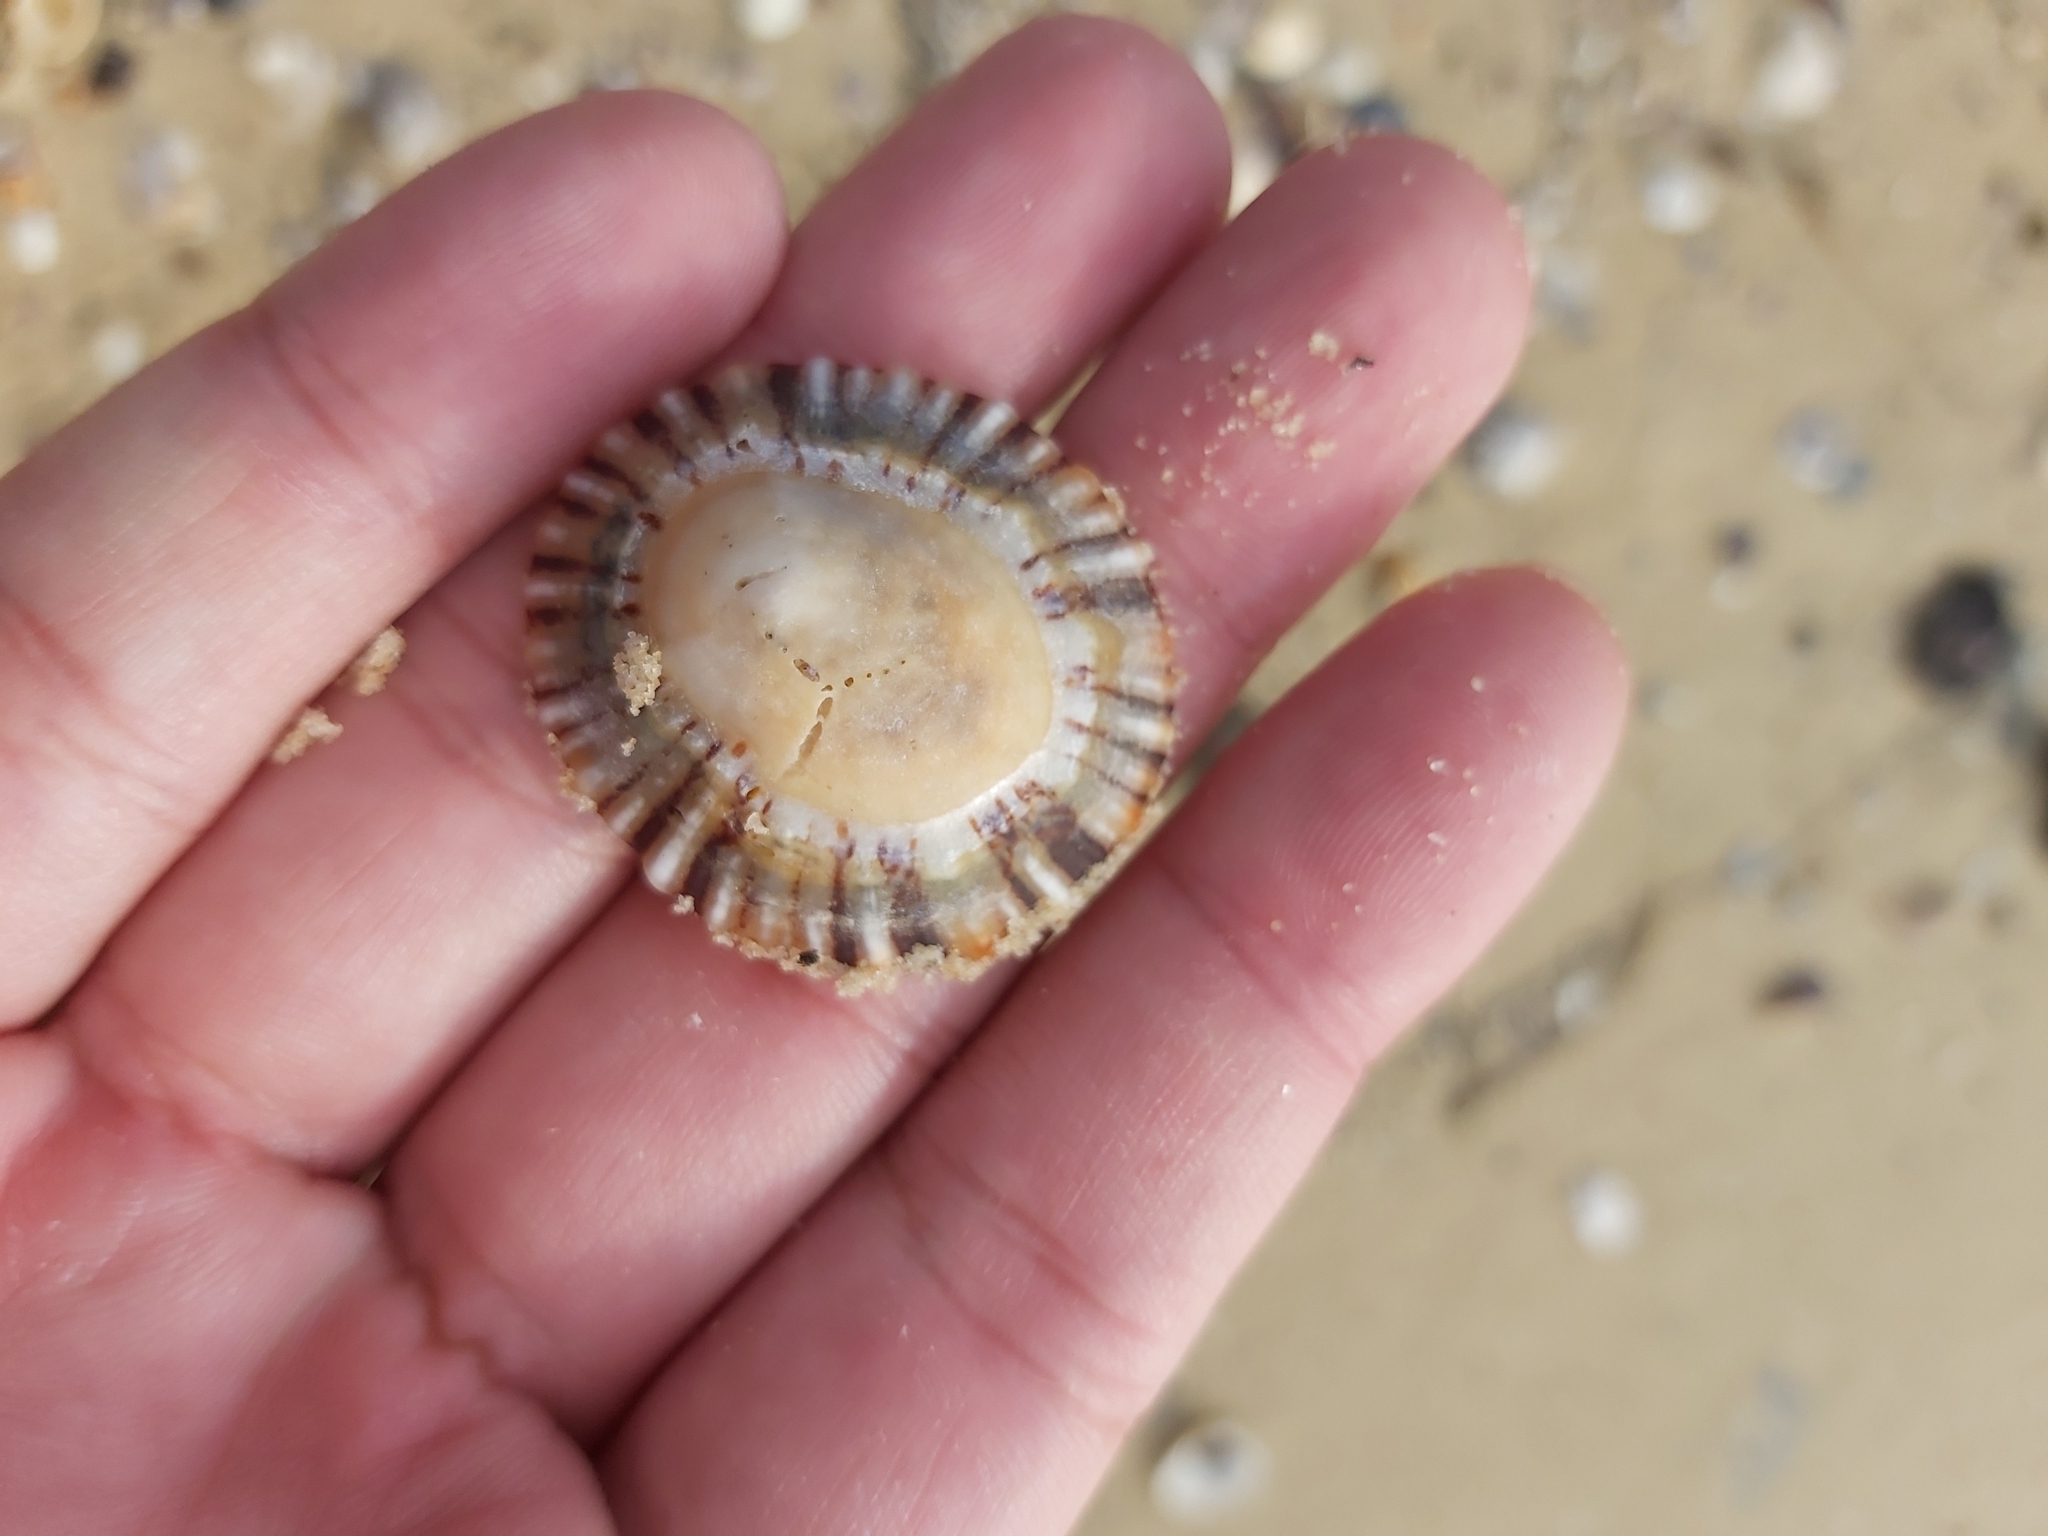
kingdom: Animalia
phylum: Mollusca
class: Gastropoda
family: Nacellidae
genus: Cellana
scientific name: Cellana tramoserica
